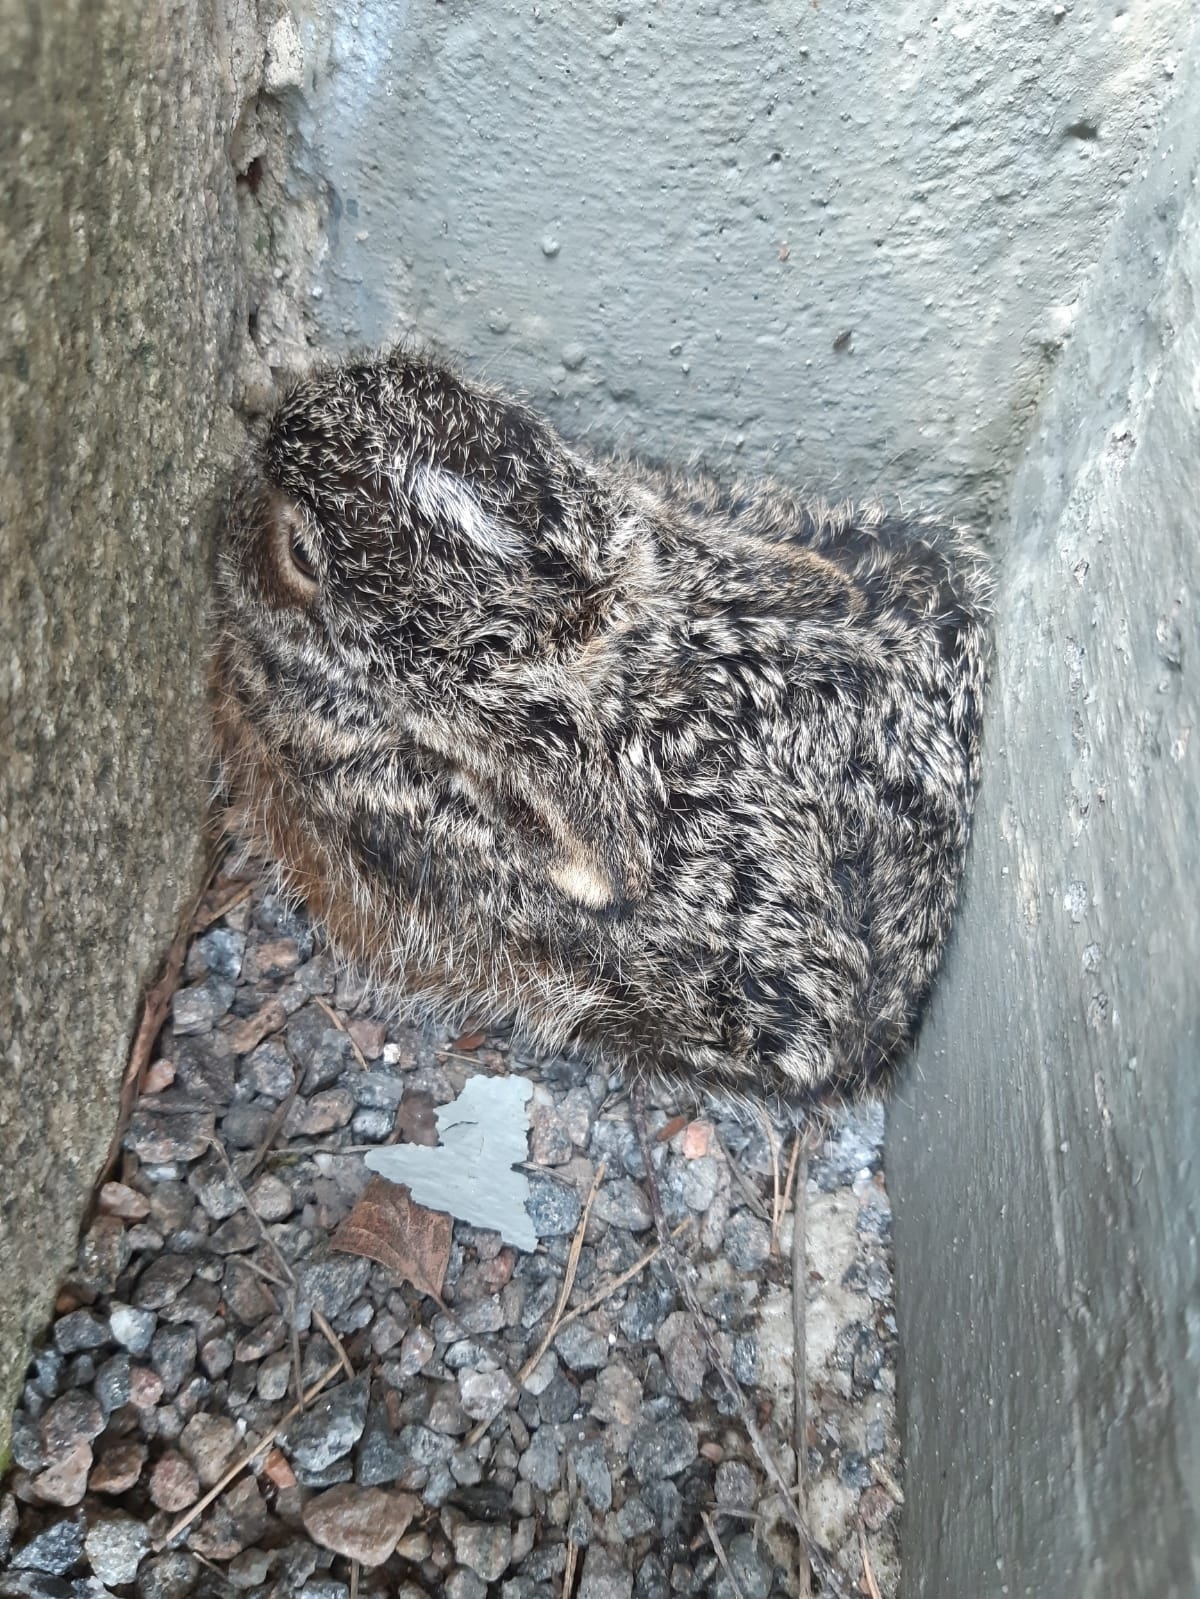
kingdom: Animalia
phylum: Chordata
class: Mammalia
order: Lagomorpha
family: Leporidae
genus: Lepus
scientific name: Lepus europaeus
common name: European hare
